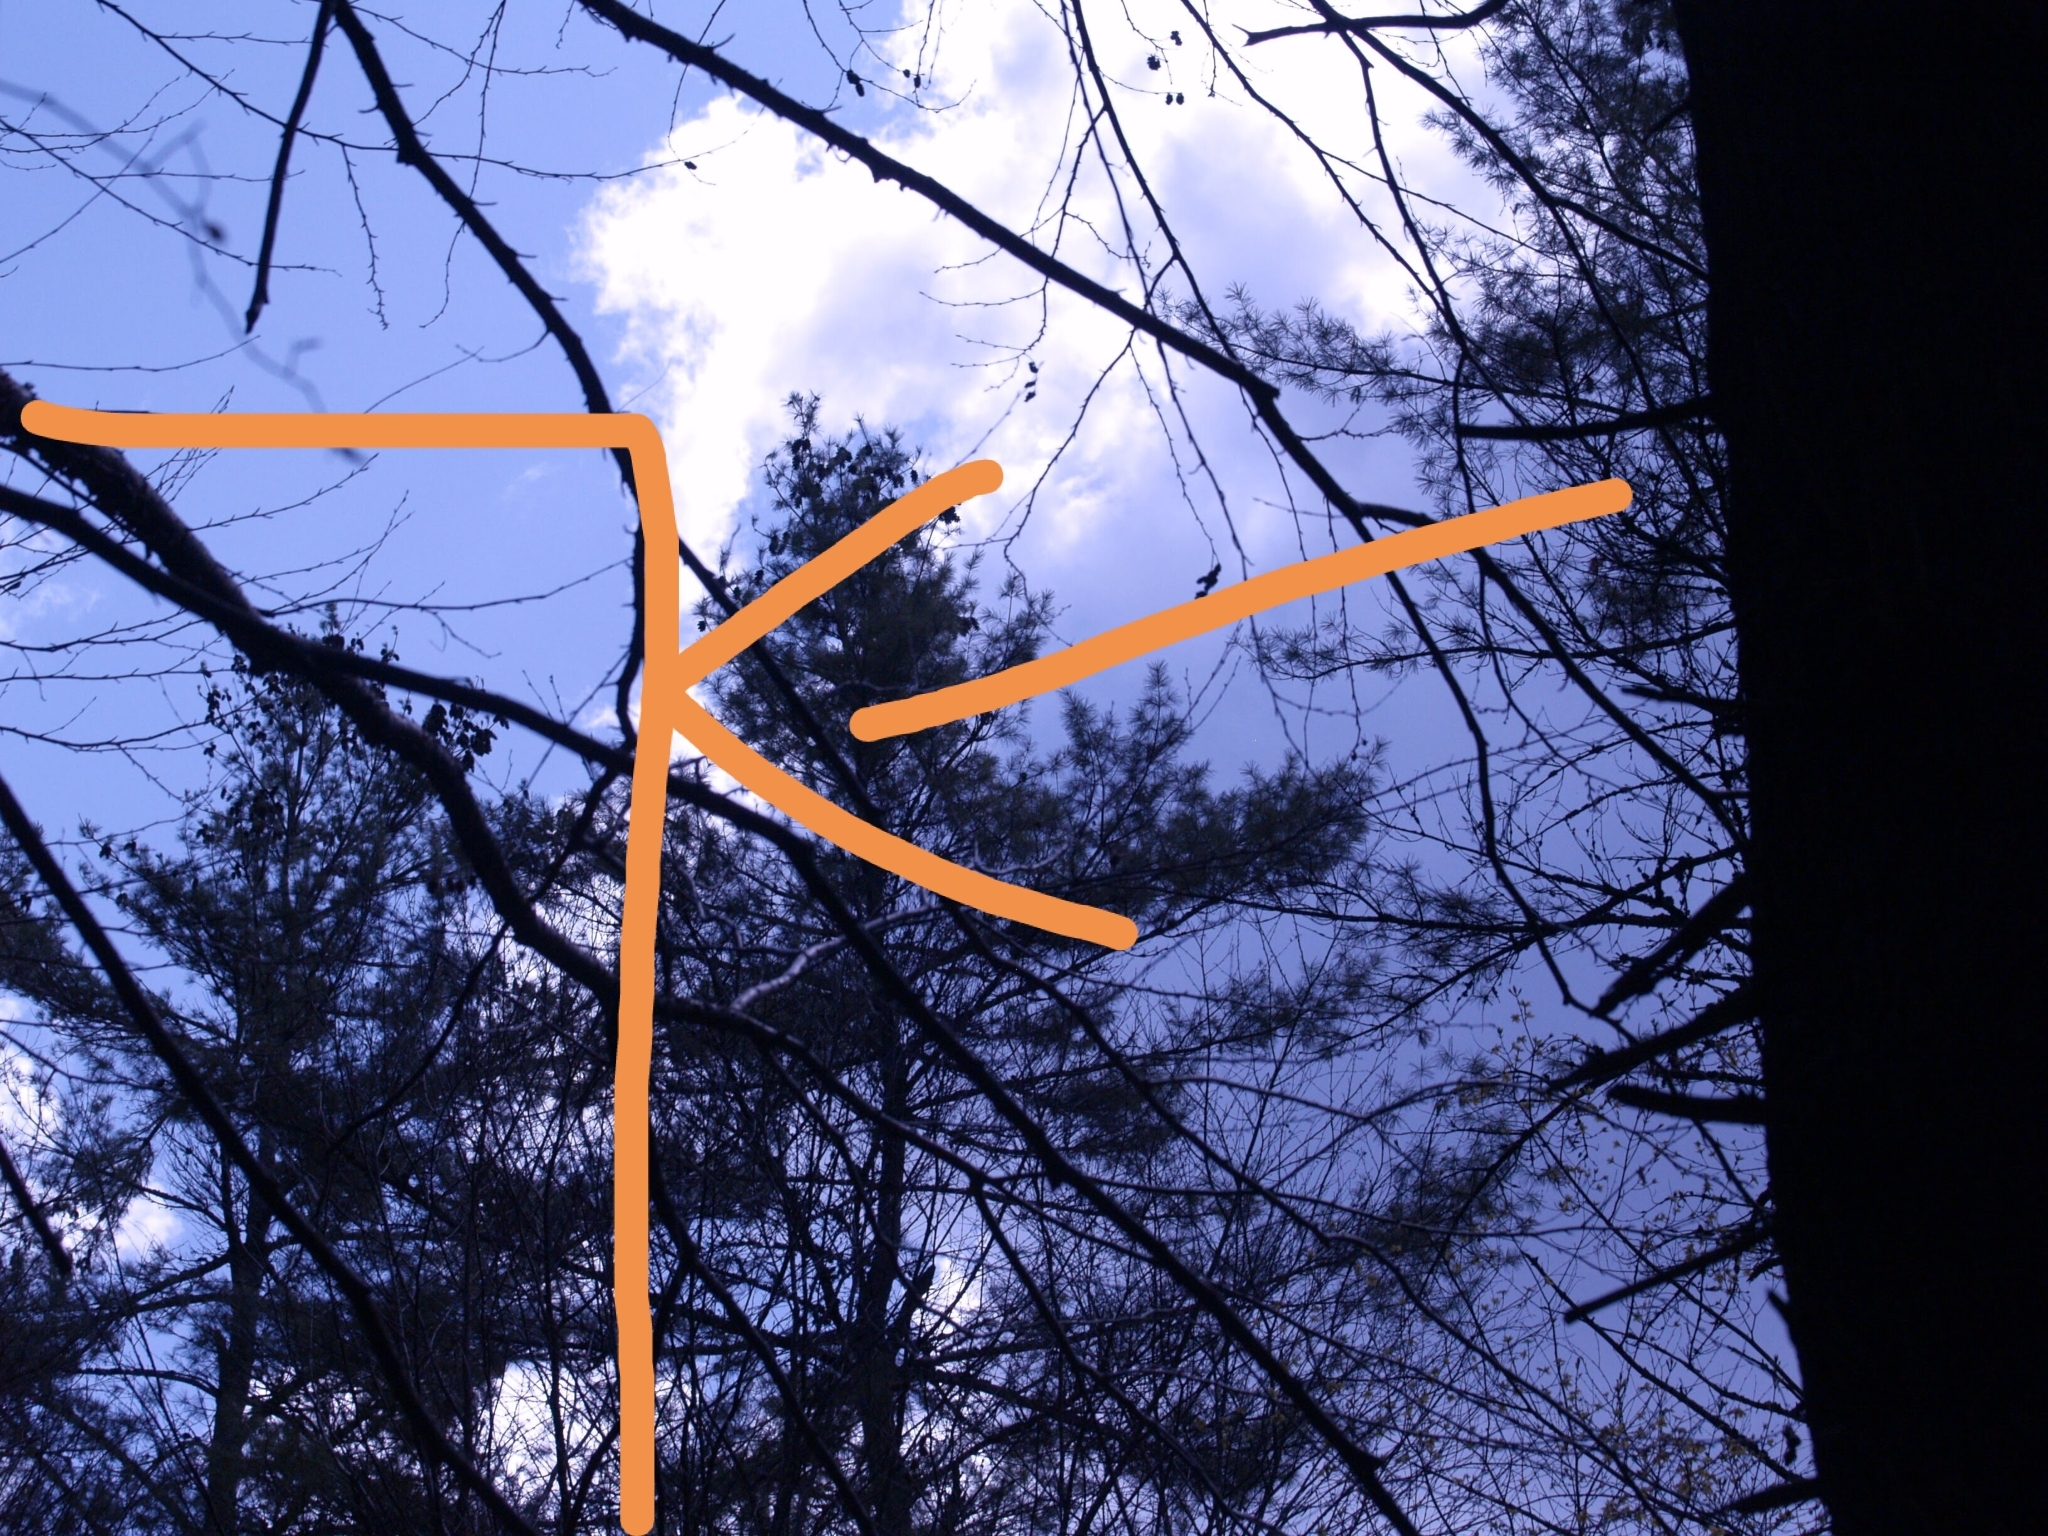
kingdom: Plantae
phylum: Tracheophyta
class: Pinopsida
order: Pinales
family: Pinaceae
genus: Pinus
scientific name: Pinus strobus
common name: Weymouth pine
